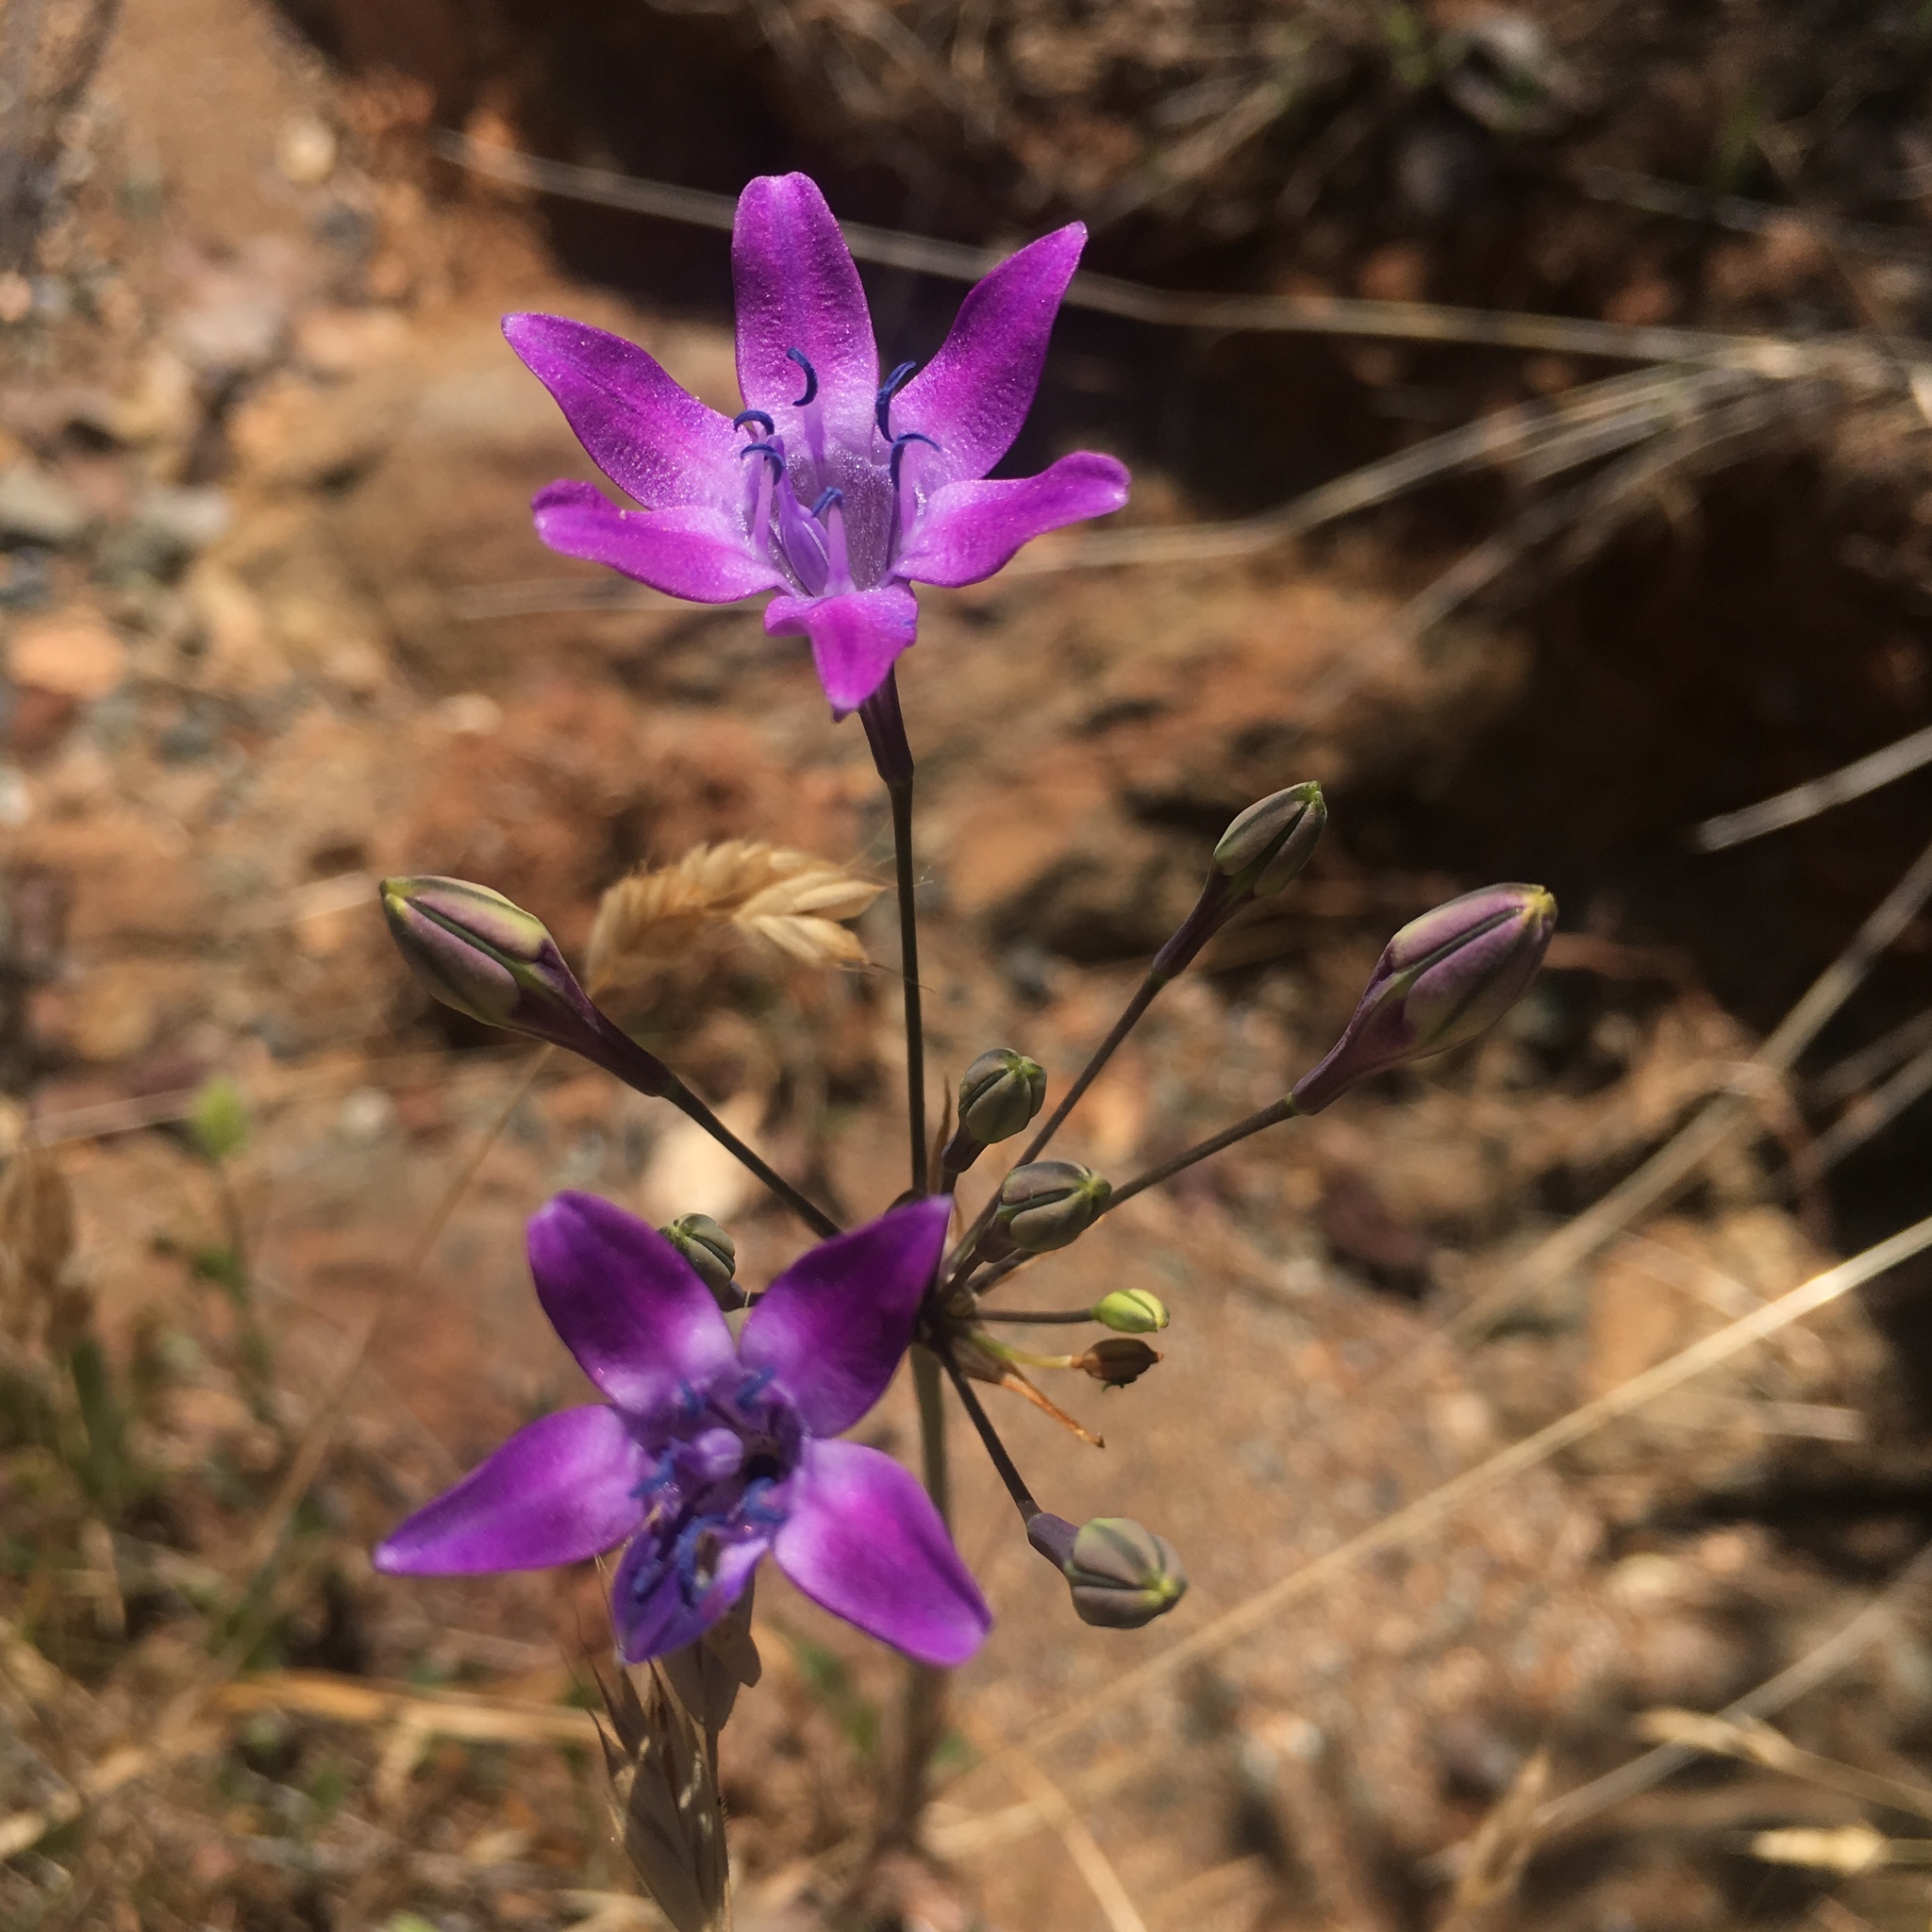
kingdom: Plantae
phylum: Tracheophyta
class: Liliopsida
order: Asparagales
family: Asparagaceae
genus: Triteleia
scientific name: Triteleia bridgesii
